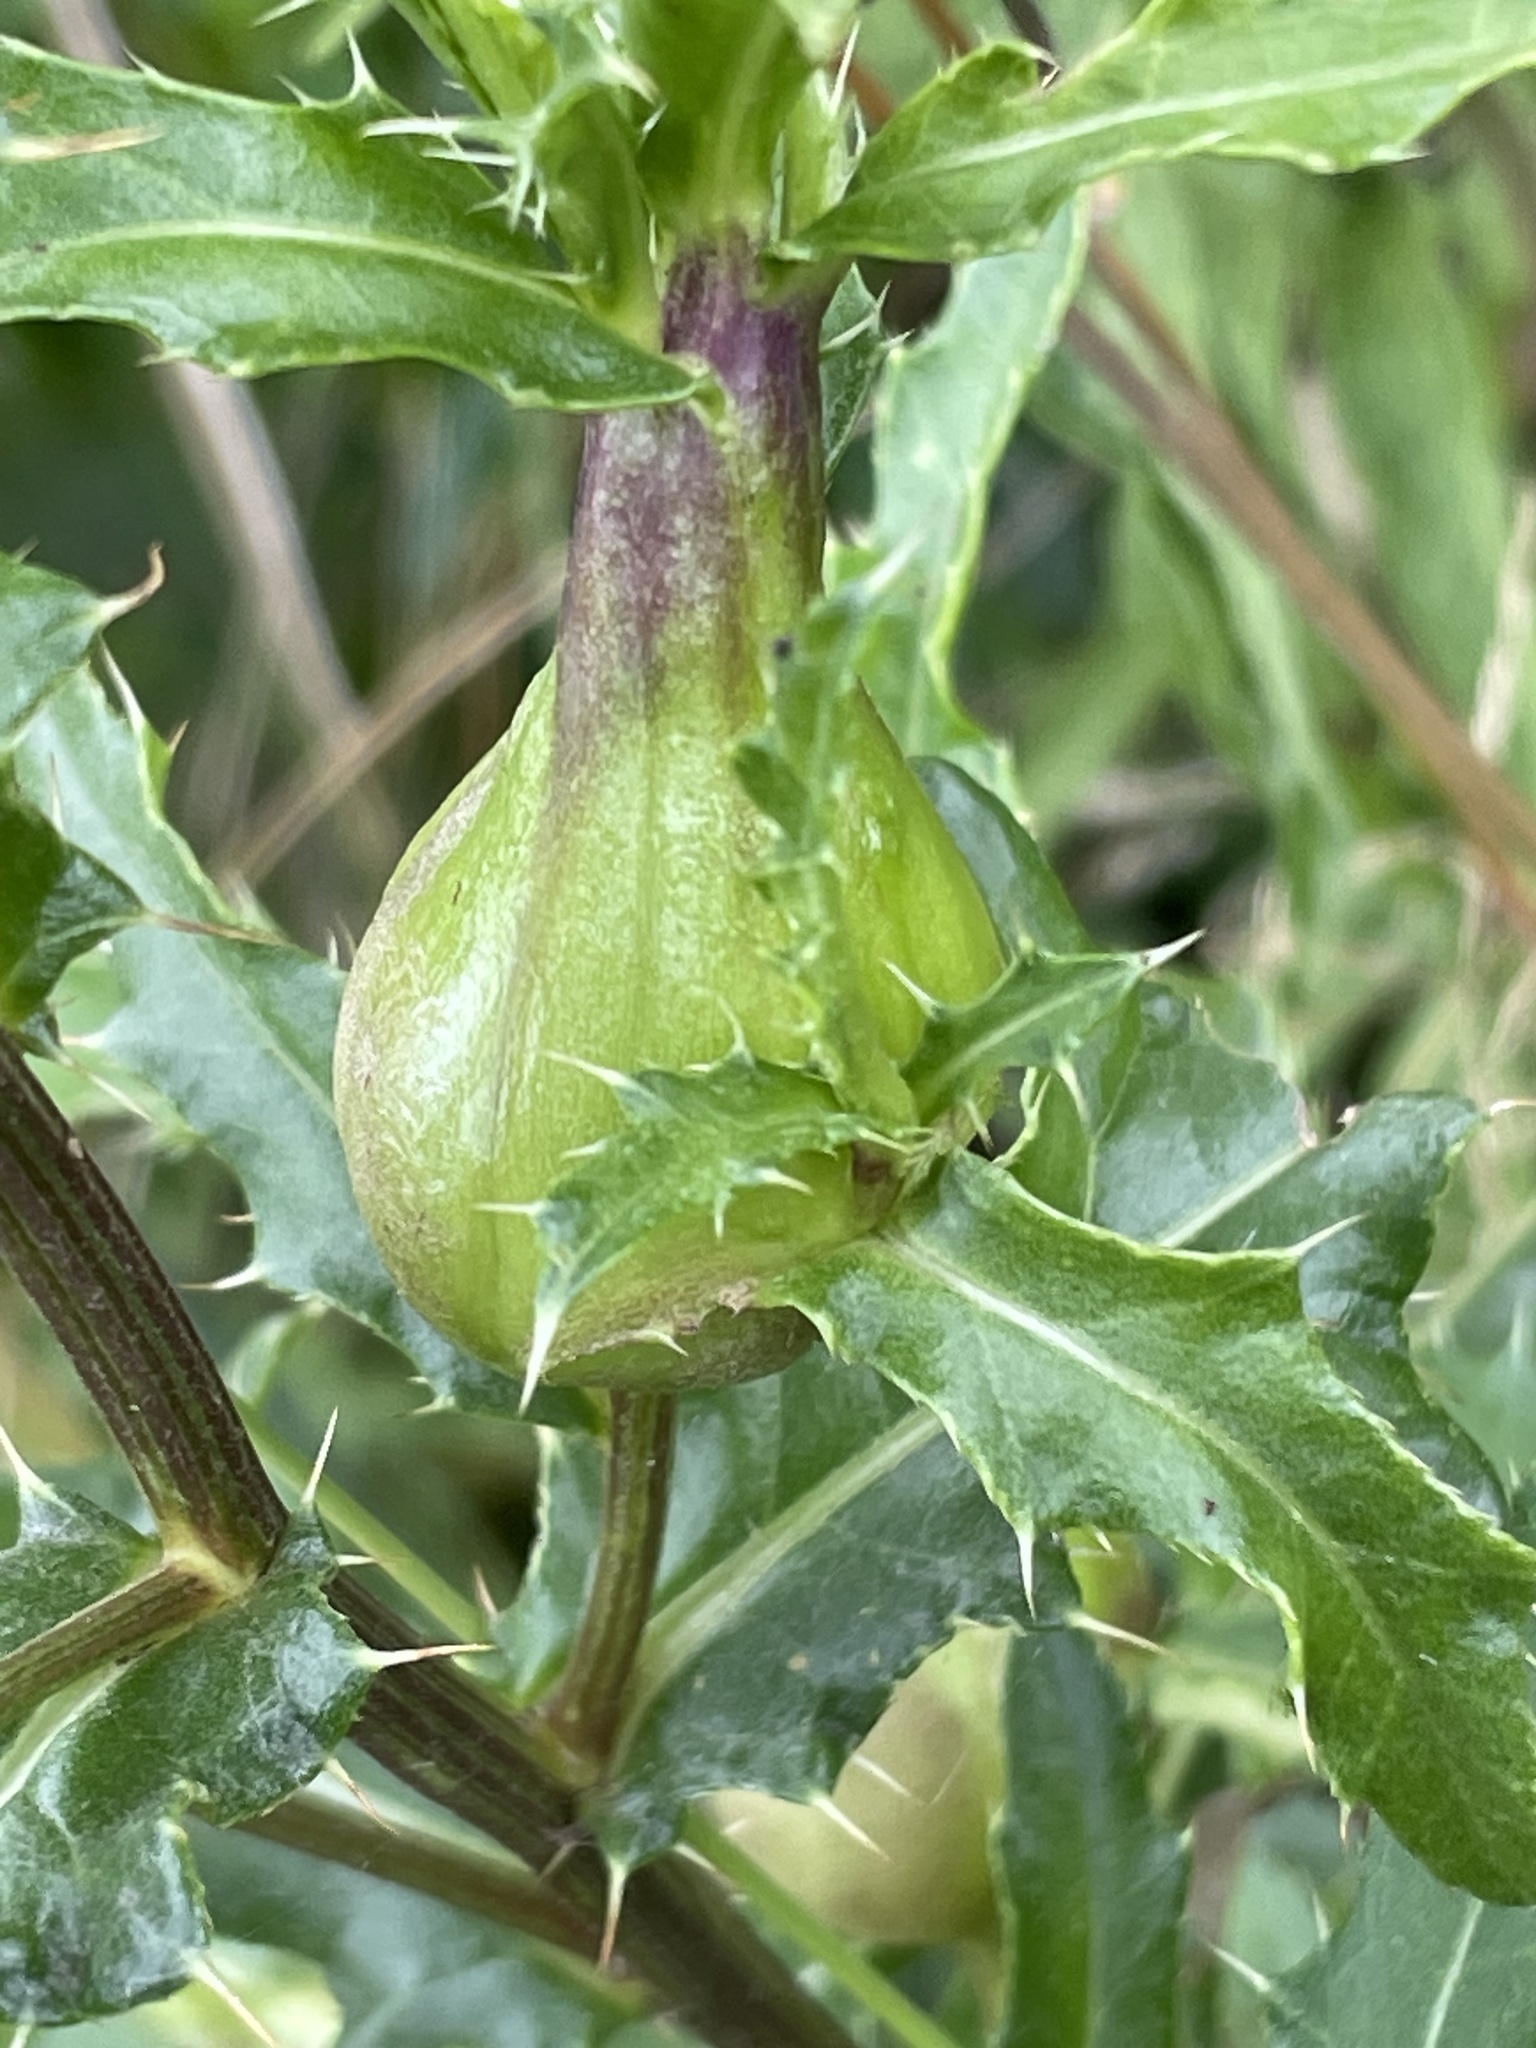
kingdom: Animalia
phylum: Arthropoda
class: Insecta
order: Diptera
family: Tephritidae
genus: Urophora
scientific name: Urophora cardui
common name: Fruit fly
